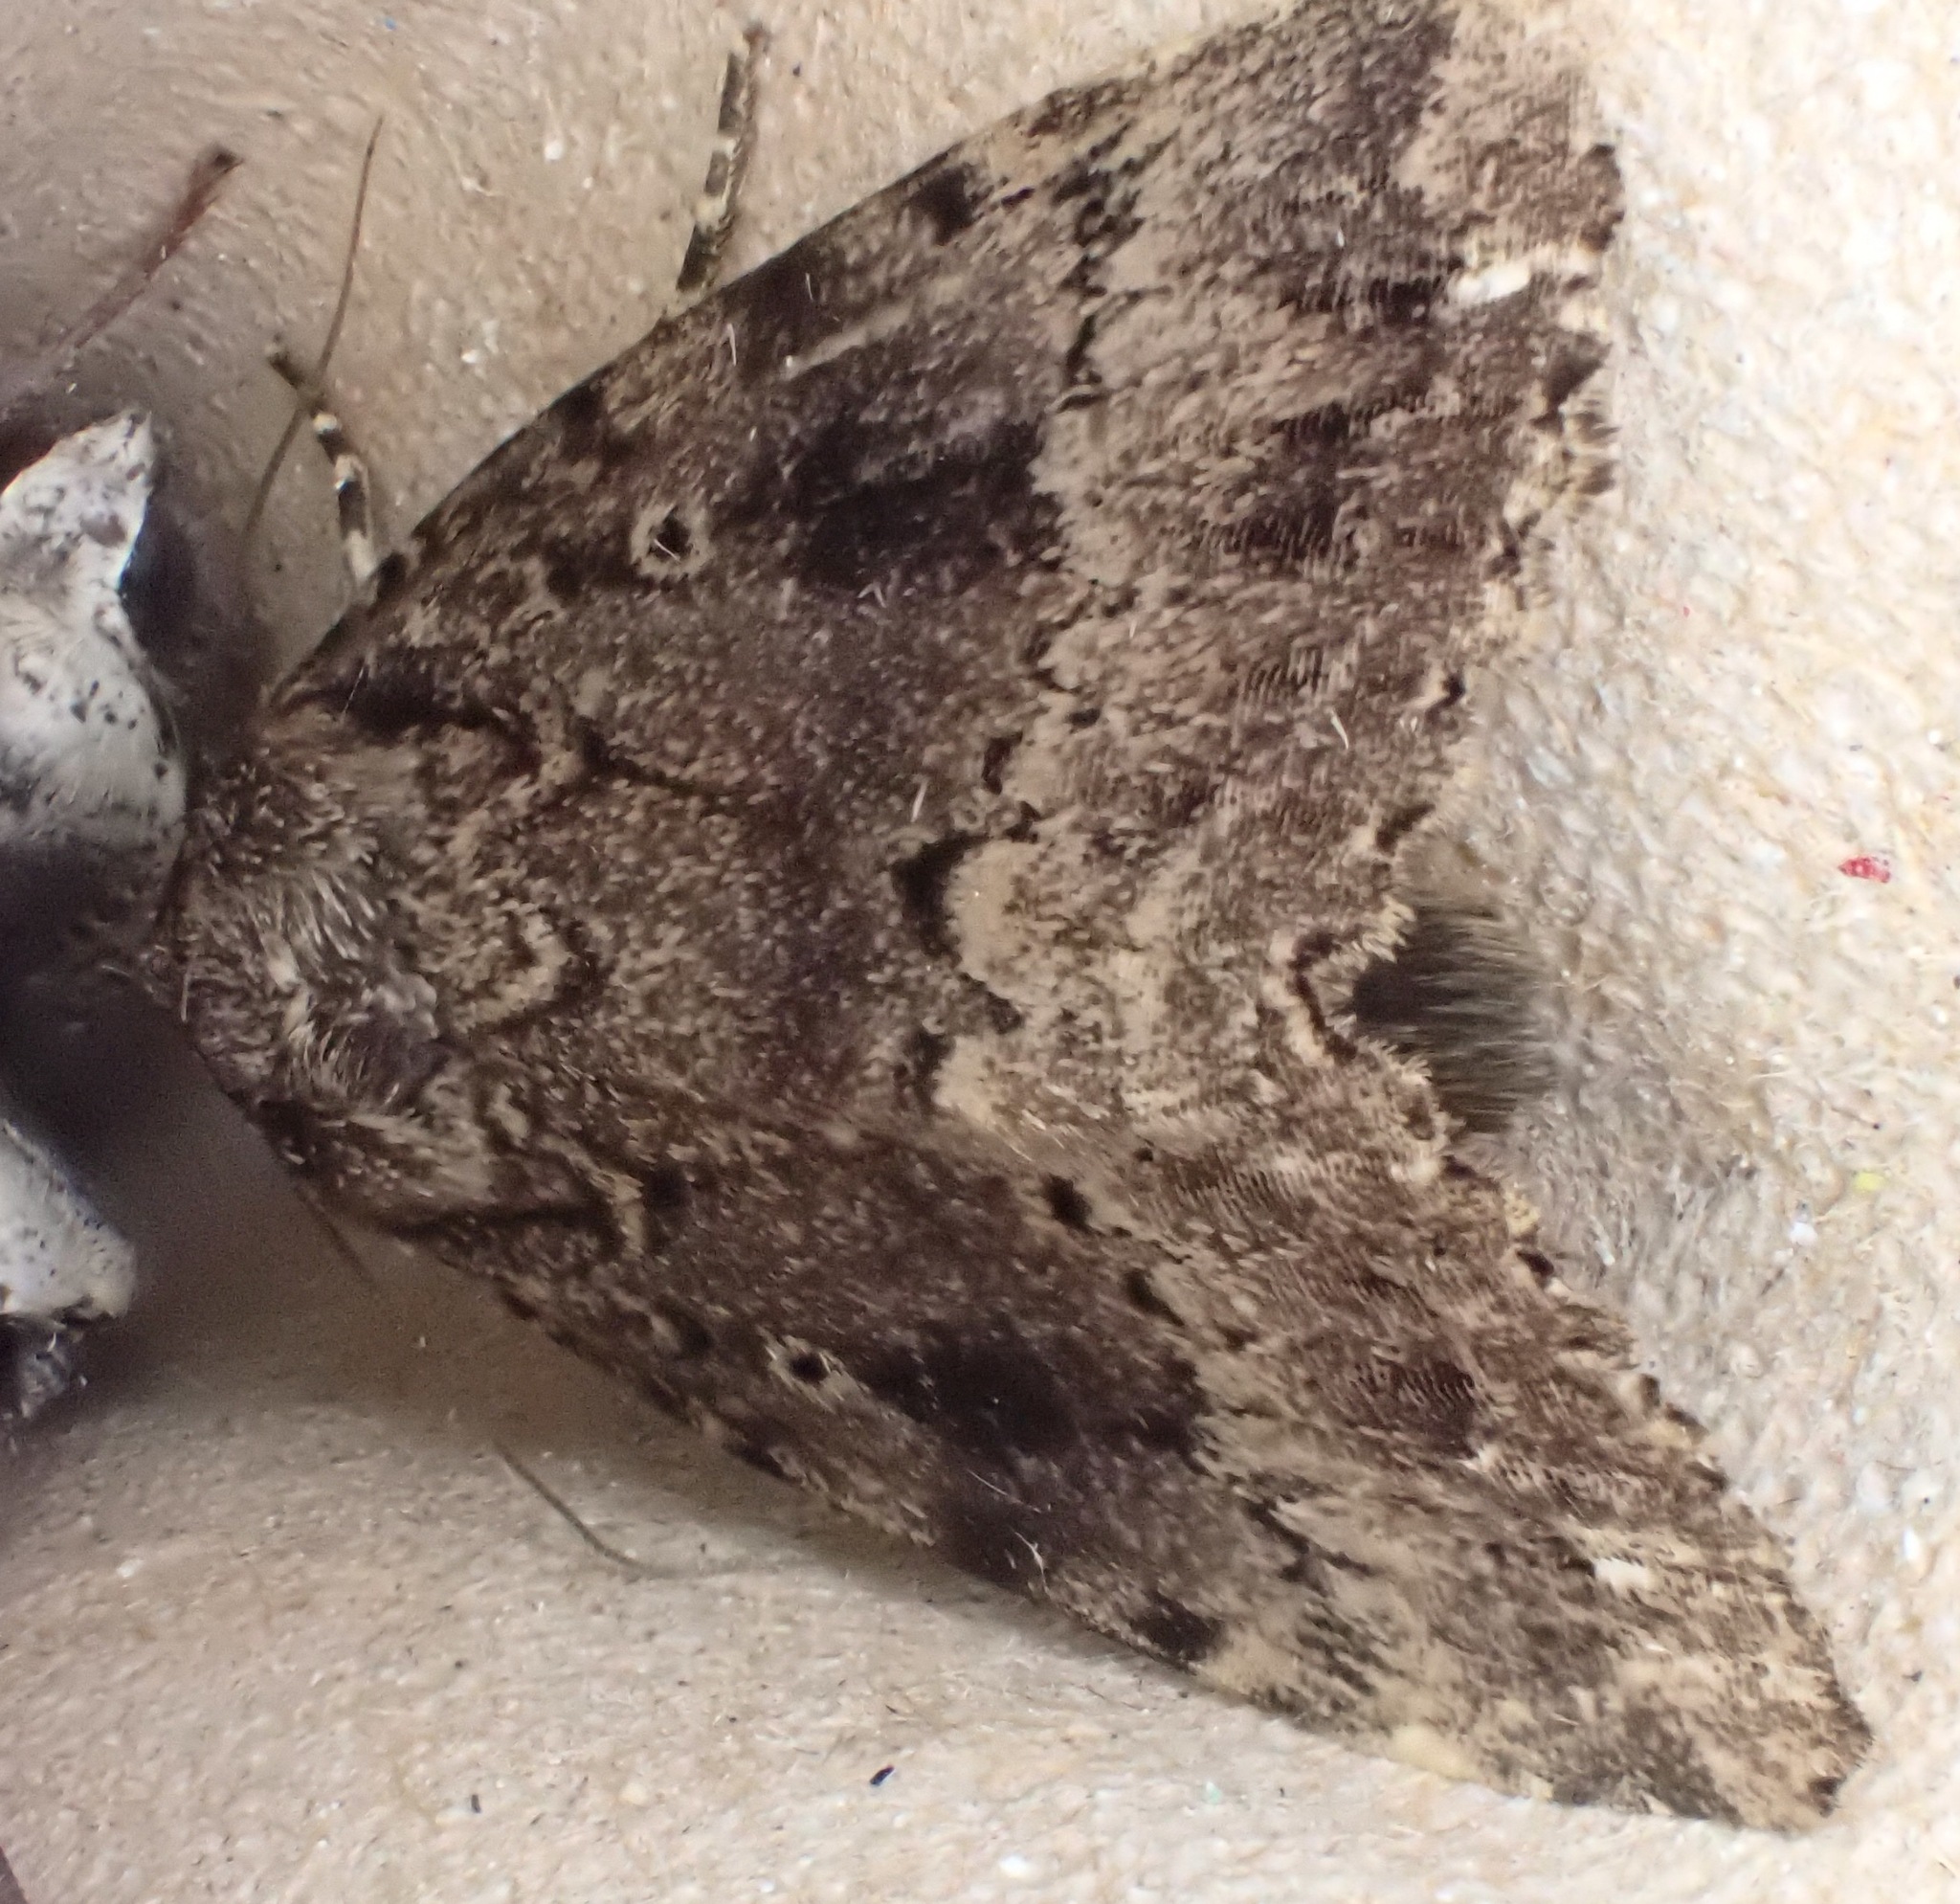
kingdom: Animalia
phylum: Arthropoda
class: Insecta
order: Lepidoptera
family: Noctuidae
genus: Amphipyra
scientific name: Amphipyra berbera
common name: Svensson's copper underwing
